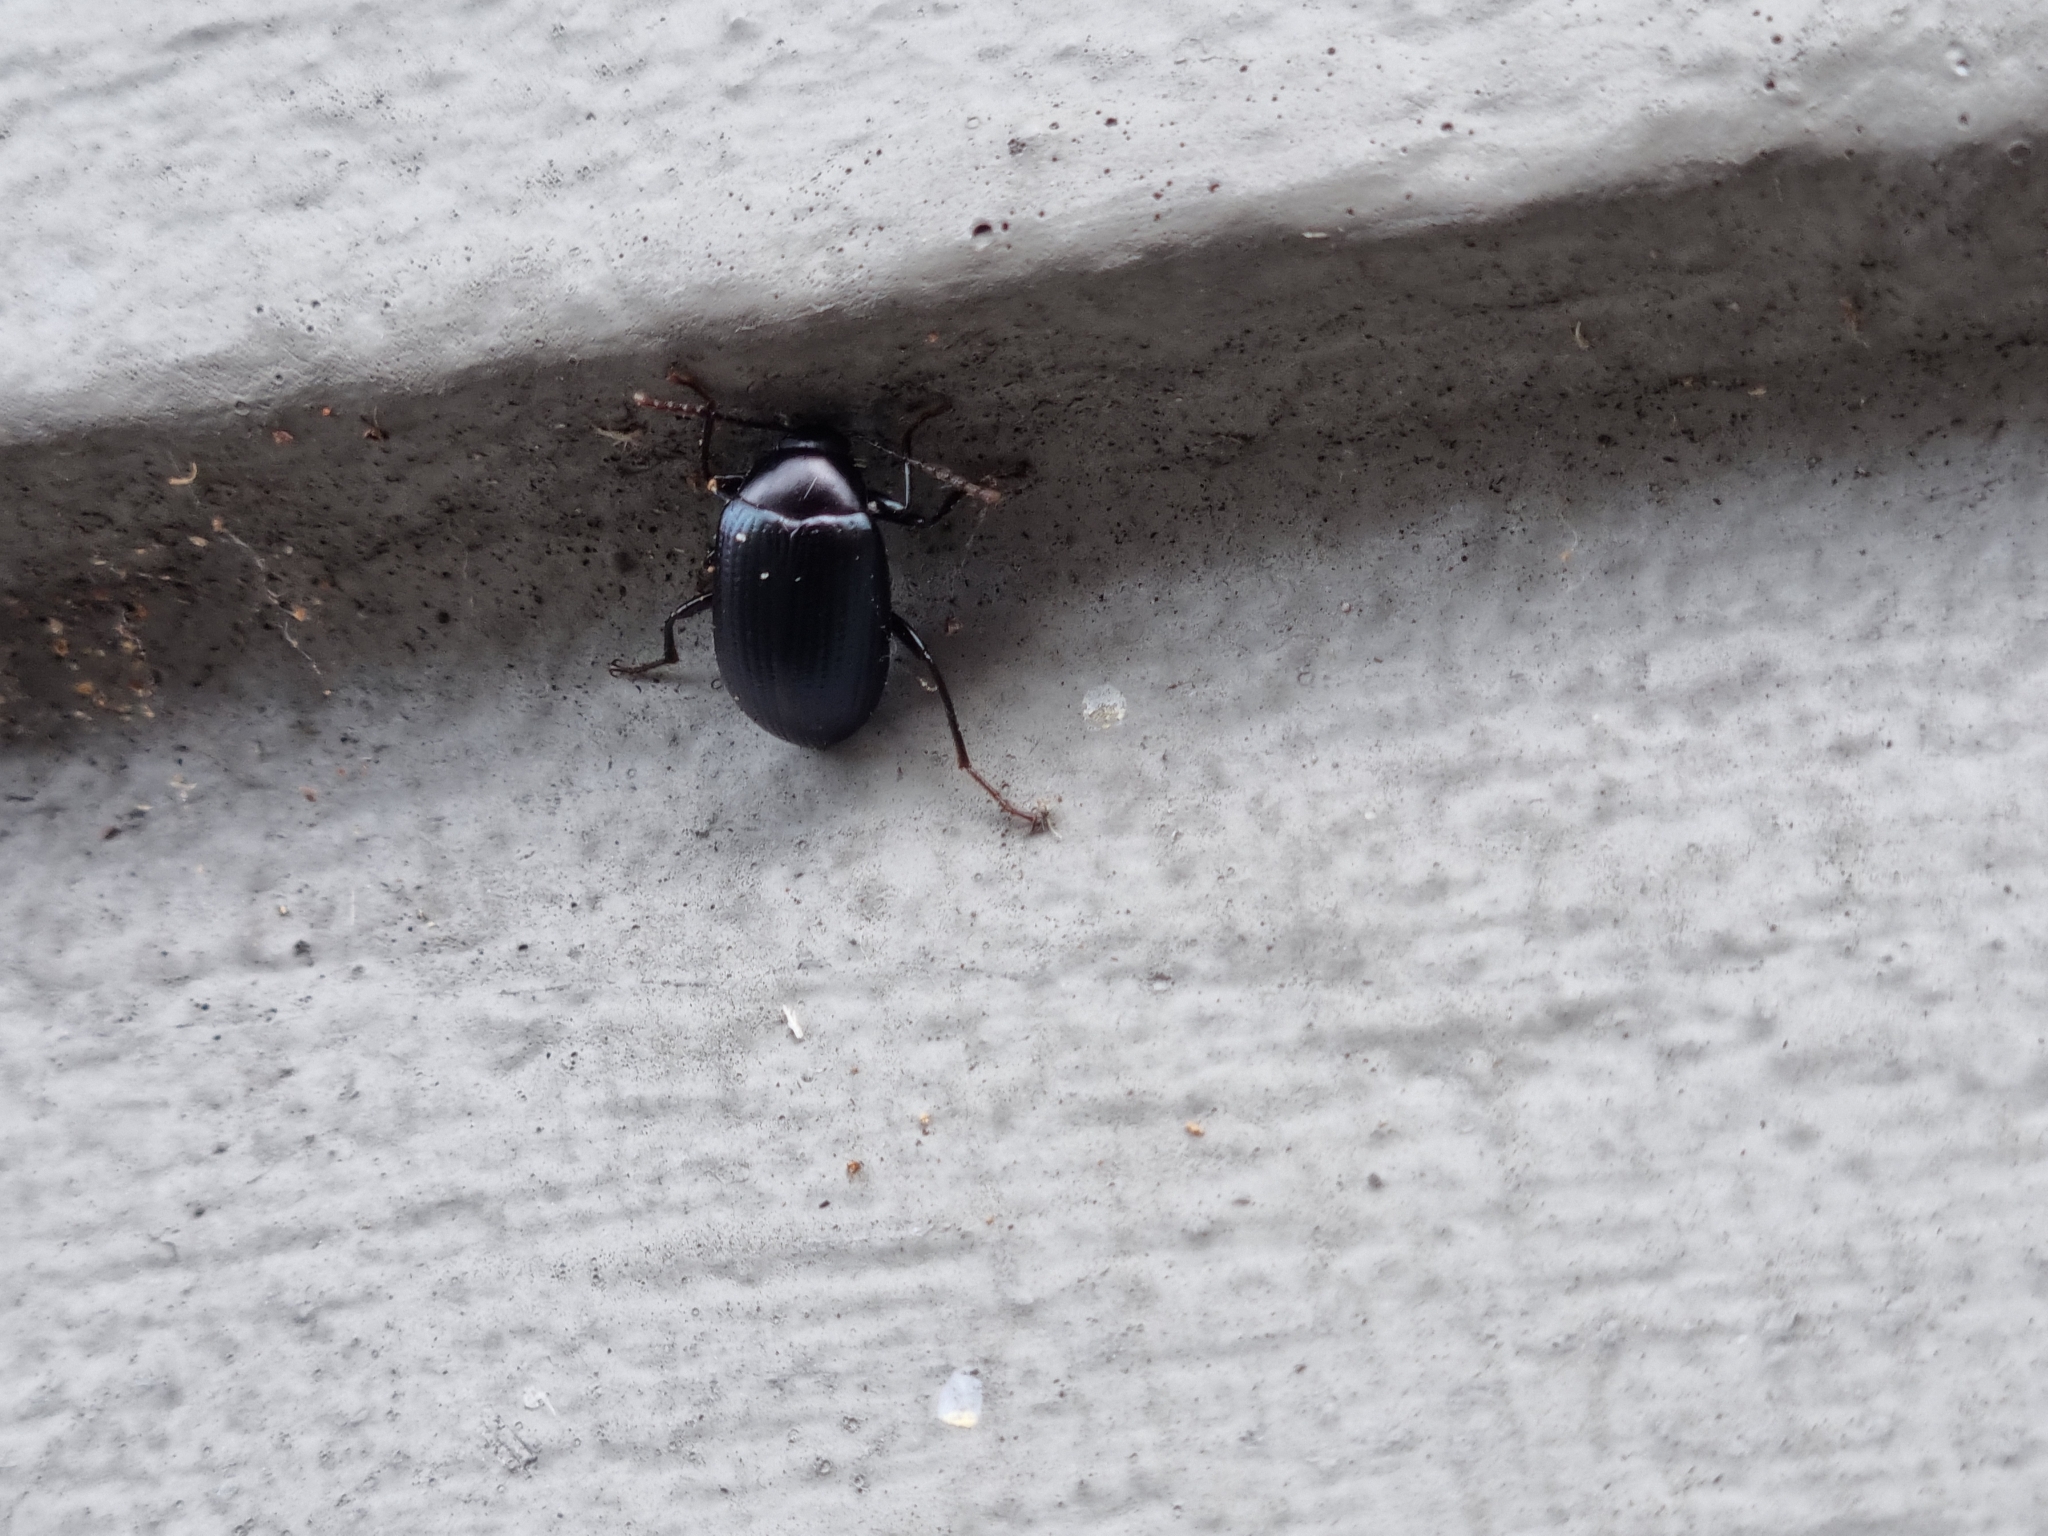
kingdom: Animalia
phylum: Arthropoda
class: Insecta
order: Coleoptera
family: Tenebrionidae
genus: Amarygmus
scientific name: Amarygmus
